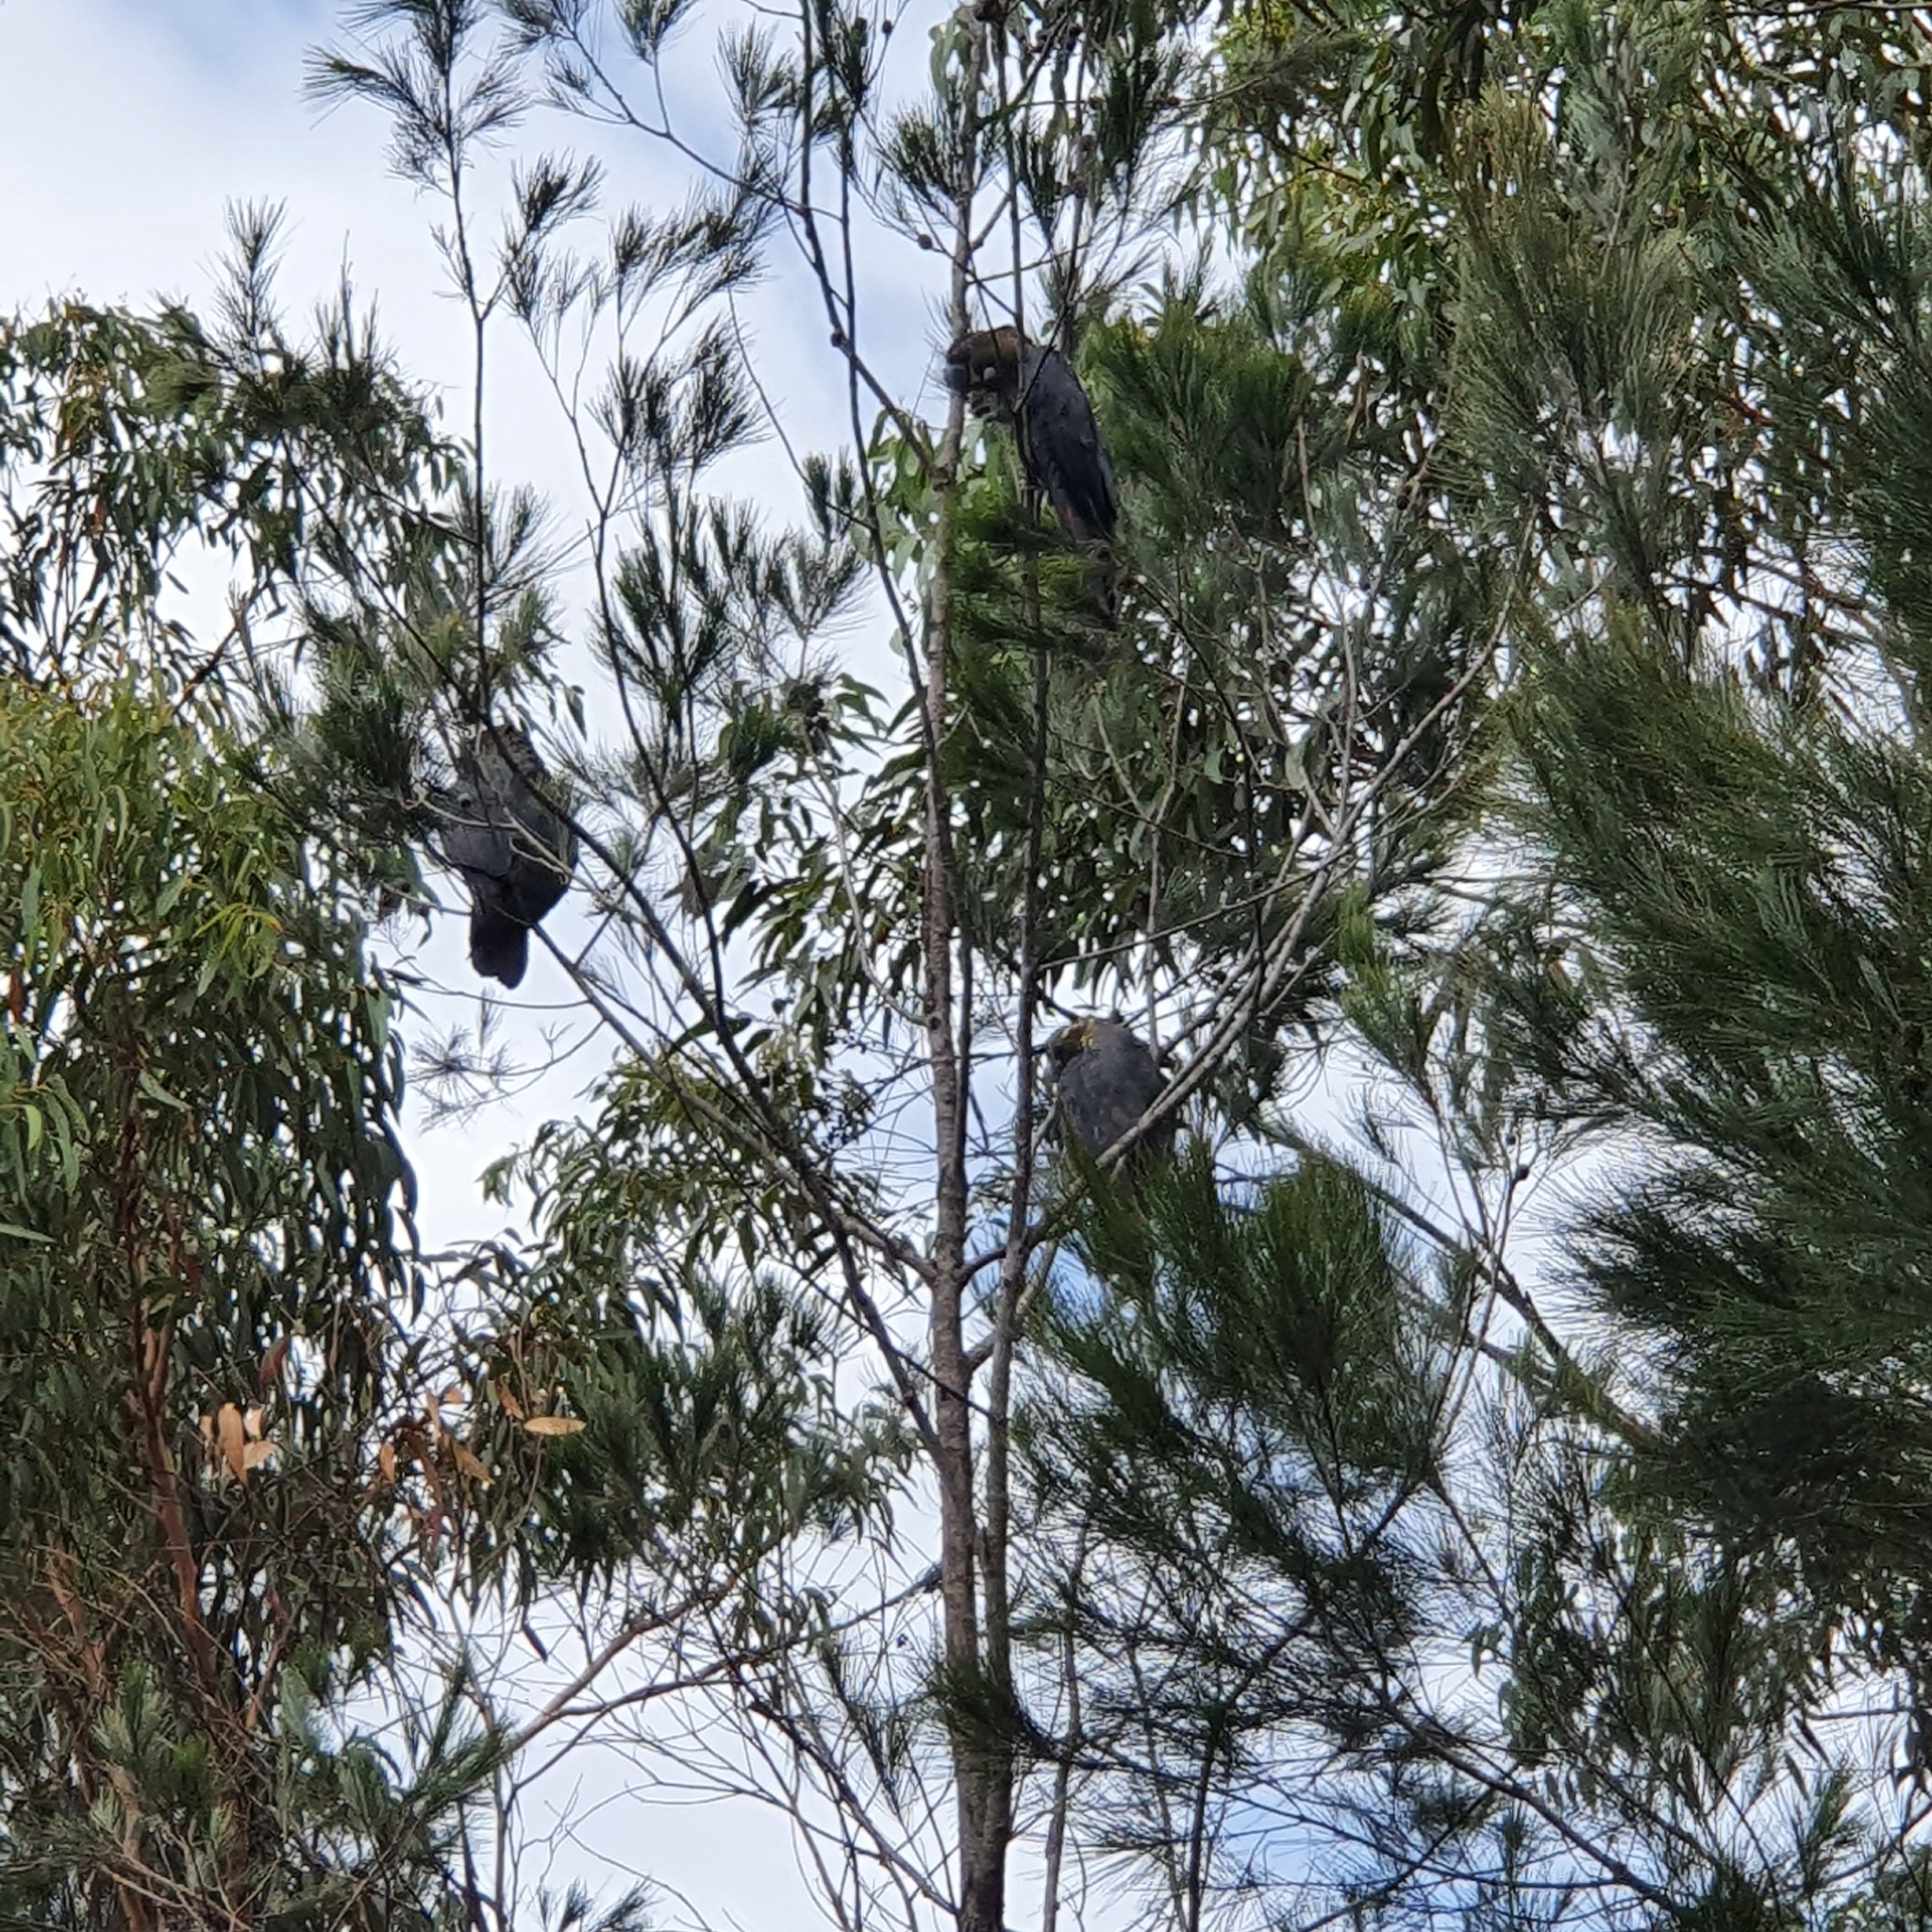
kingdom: Animalia
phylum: Chordata
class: Aves
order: Psittaciformes
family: Psittacidae
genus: Calyptorhynchus
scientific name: Calyptorhynchus lathami
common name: Glossy black cockatoo
